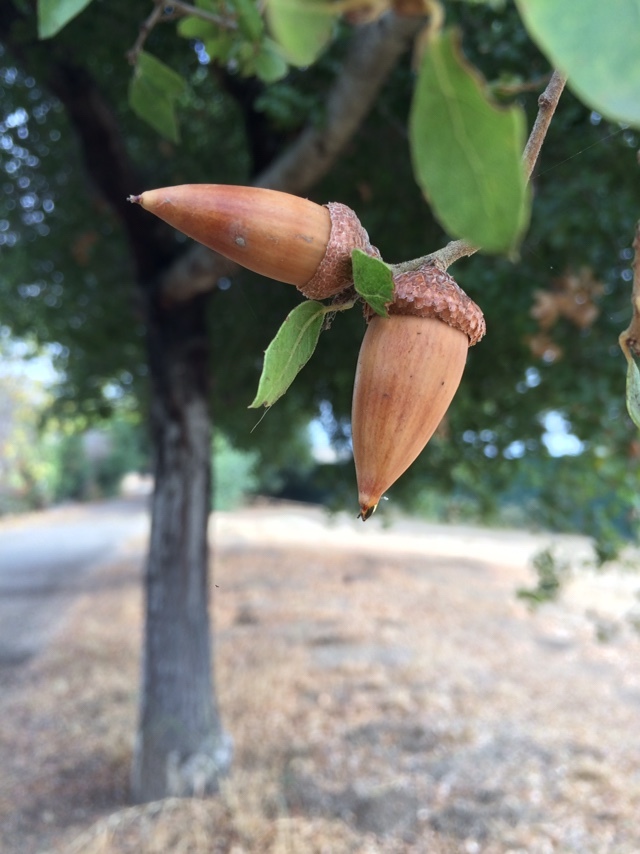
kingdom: Plantae
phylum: Tracheophyta
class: Magnoliopsida
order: Fagales
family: Fagaceae
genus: Quercus
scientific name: Quercus wislizeni
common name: Interior live oak
